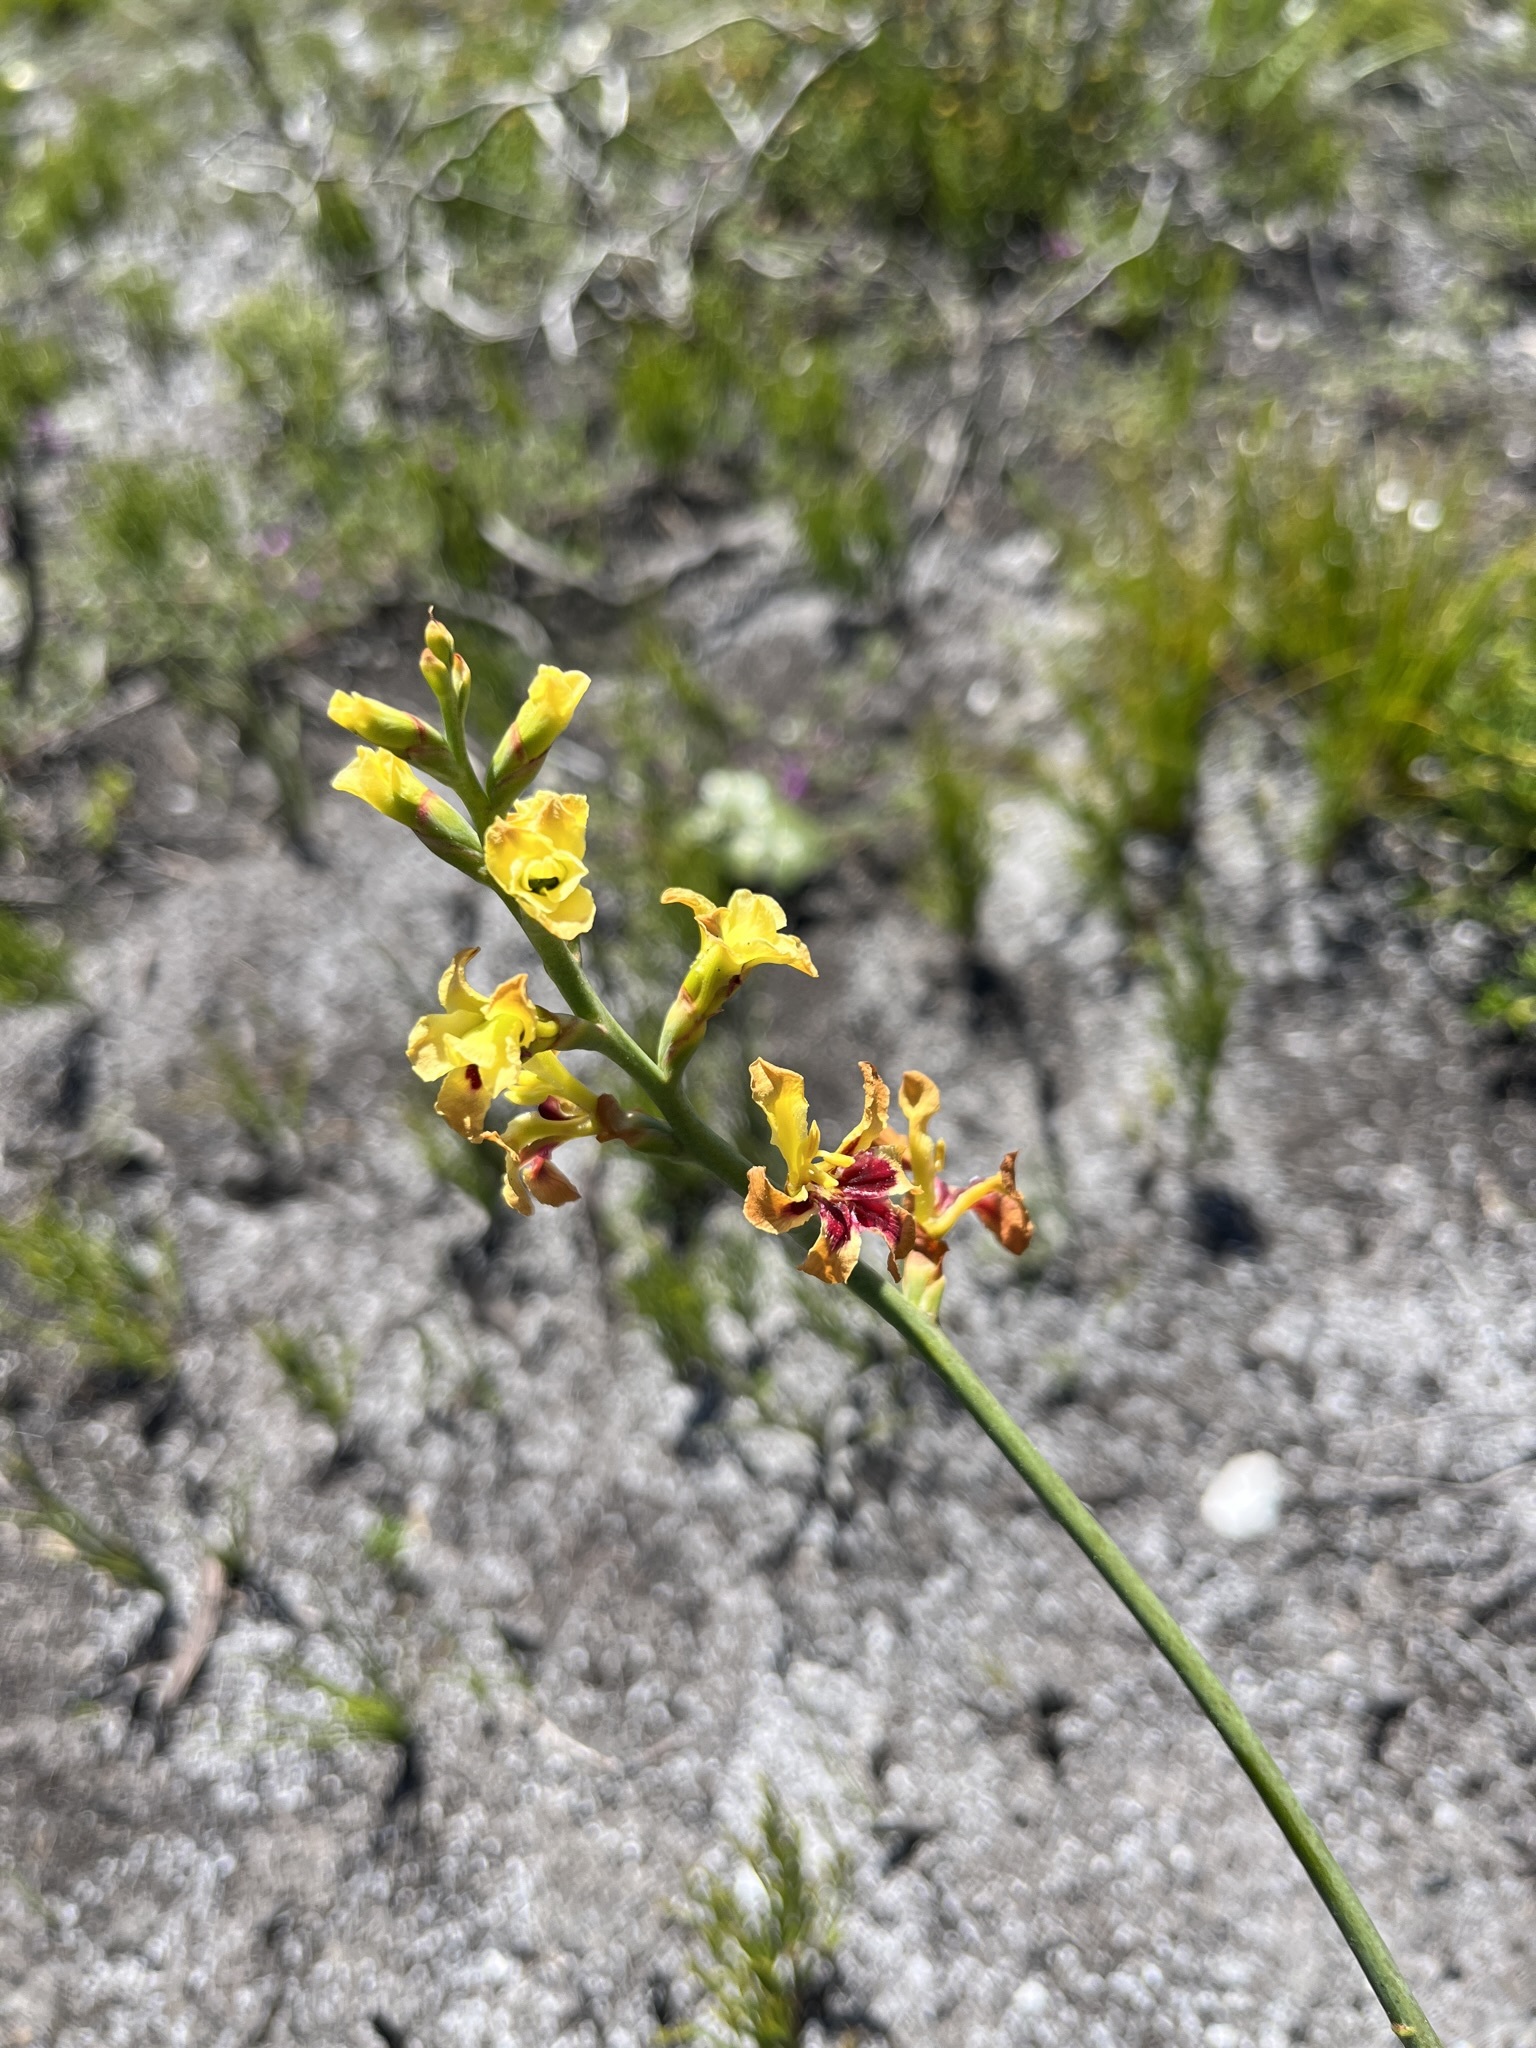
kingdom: Plantae
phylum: Tracheophyta
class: Liliopsida
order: Asparagales
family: Iridaceae
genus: Tritoniopsis
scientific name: Tritoniopsis parviflora
